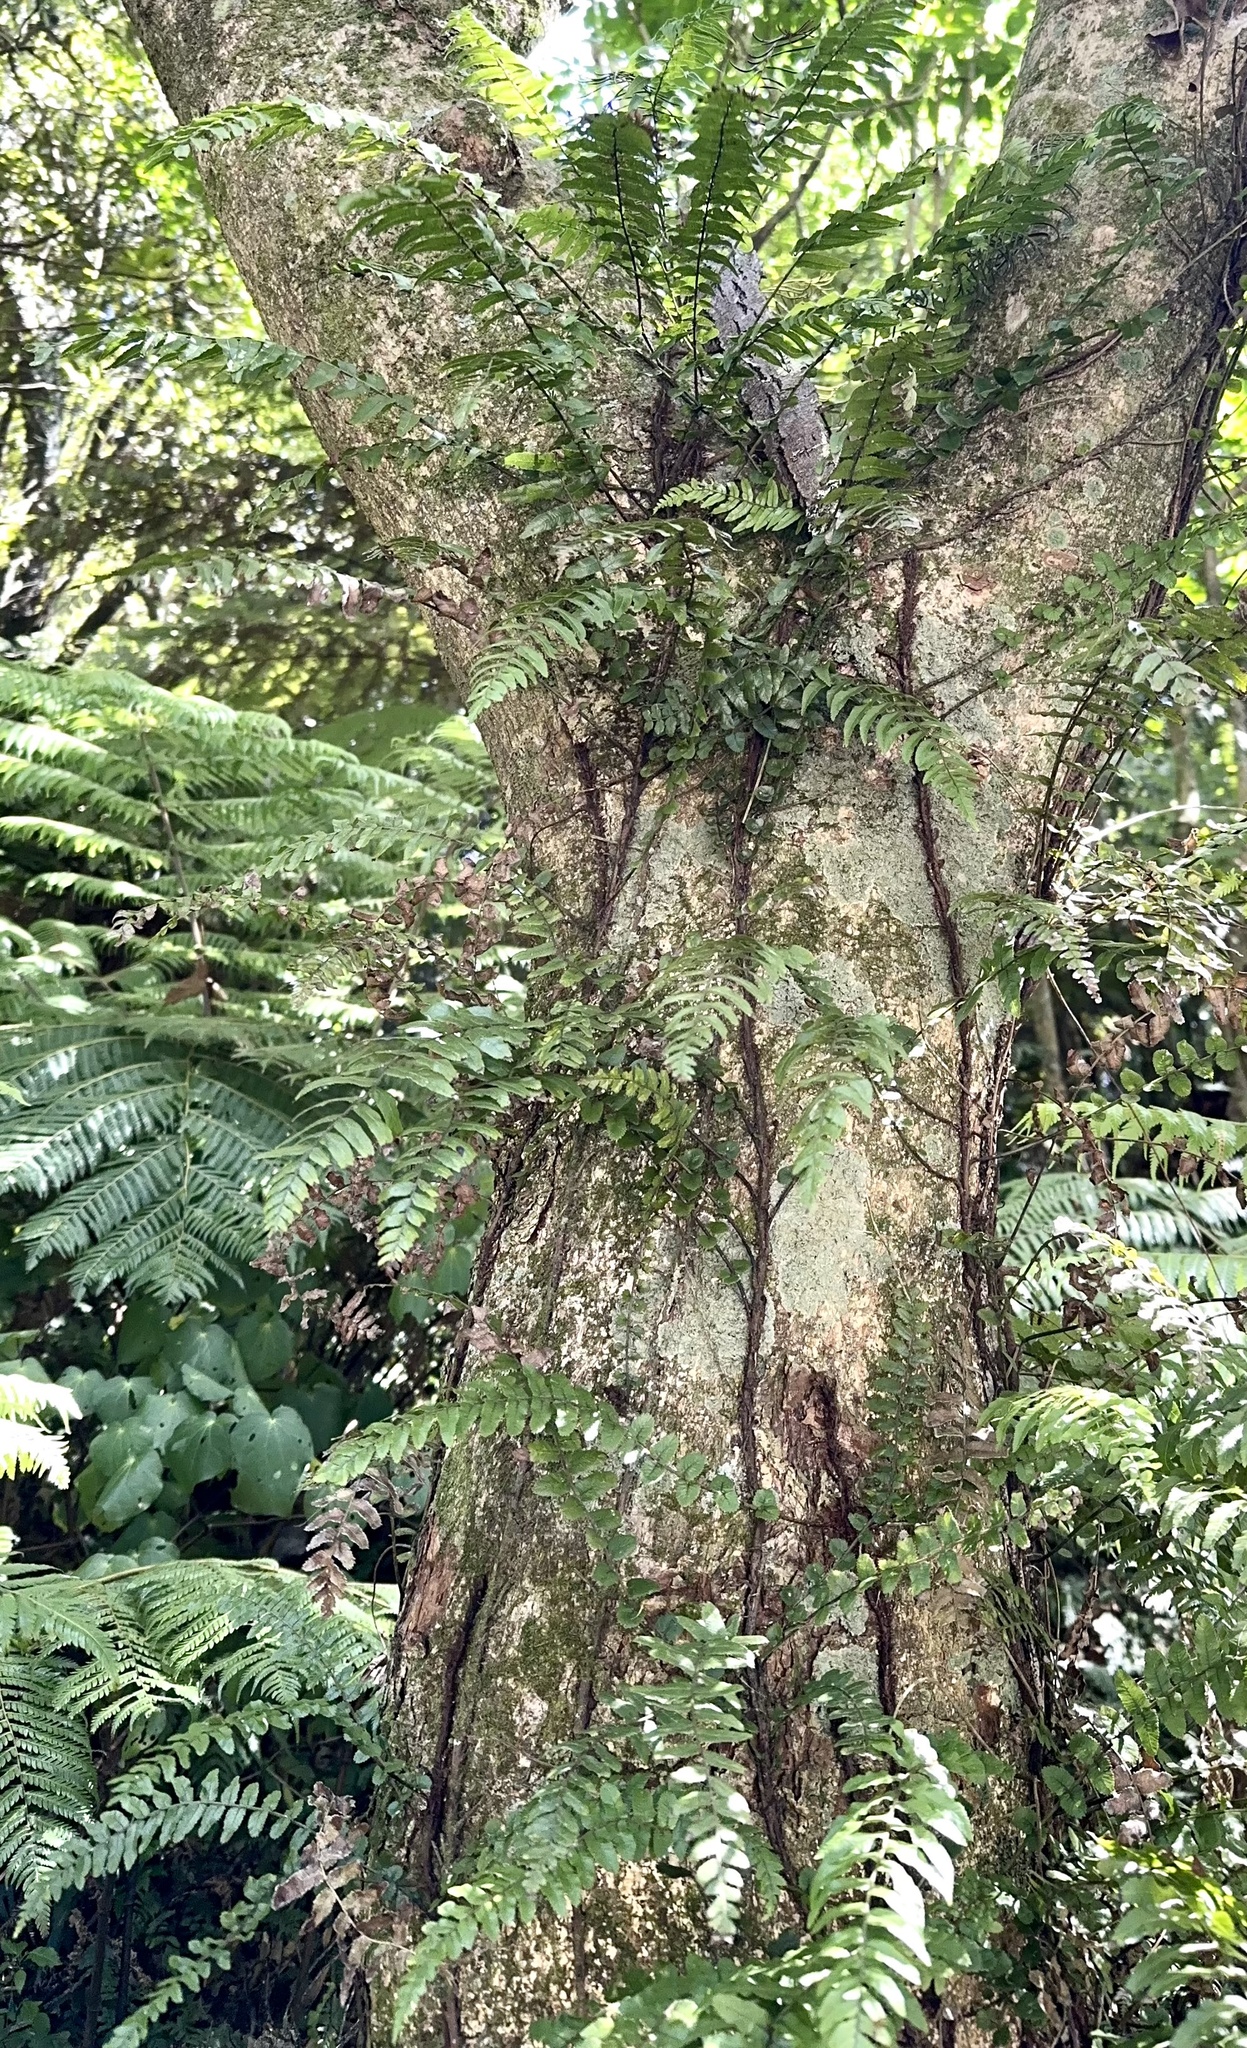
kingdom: Plantae
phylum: Tracheophyta
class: Polypodiopsida
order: Polypodiales
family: Blechnaceae
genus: Icarus
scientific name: Icarus filiformis
